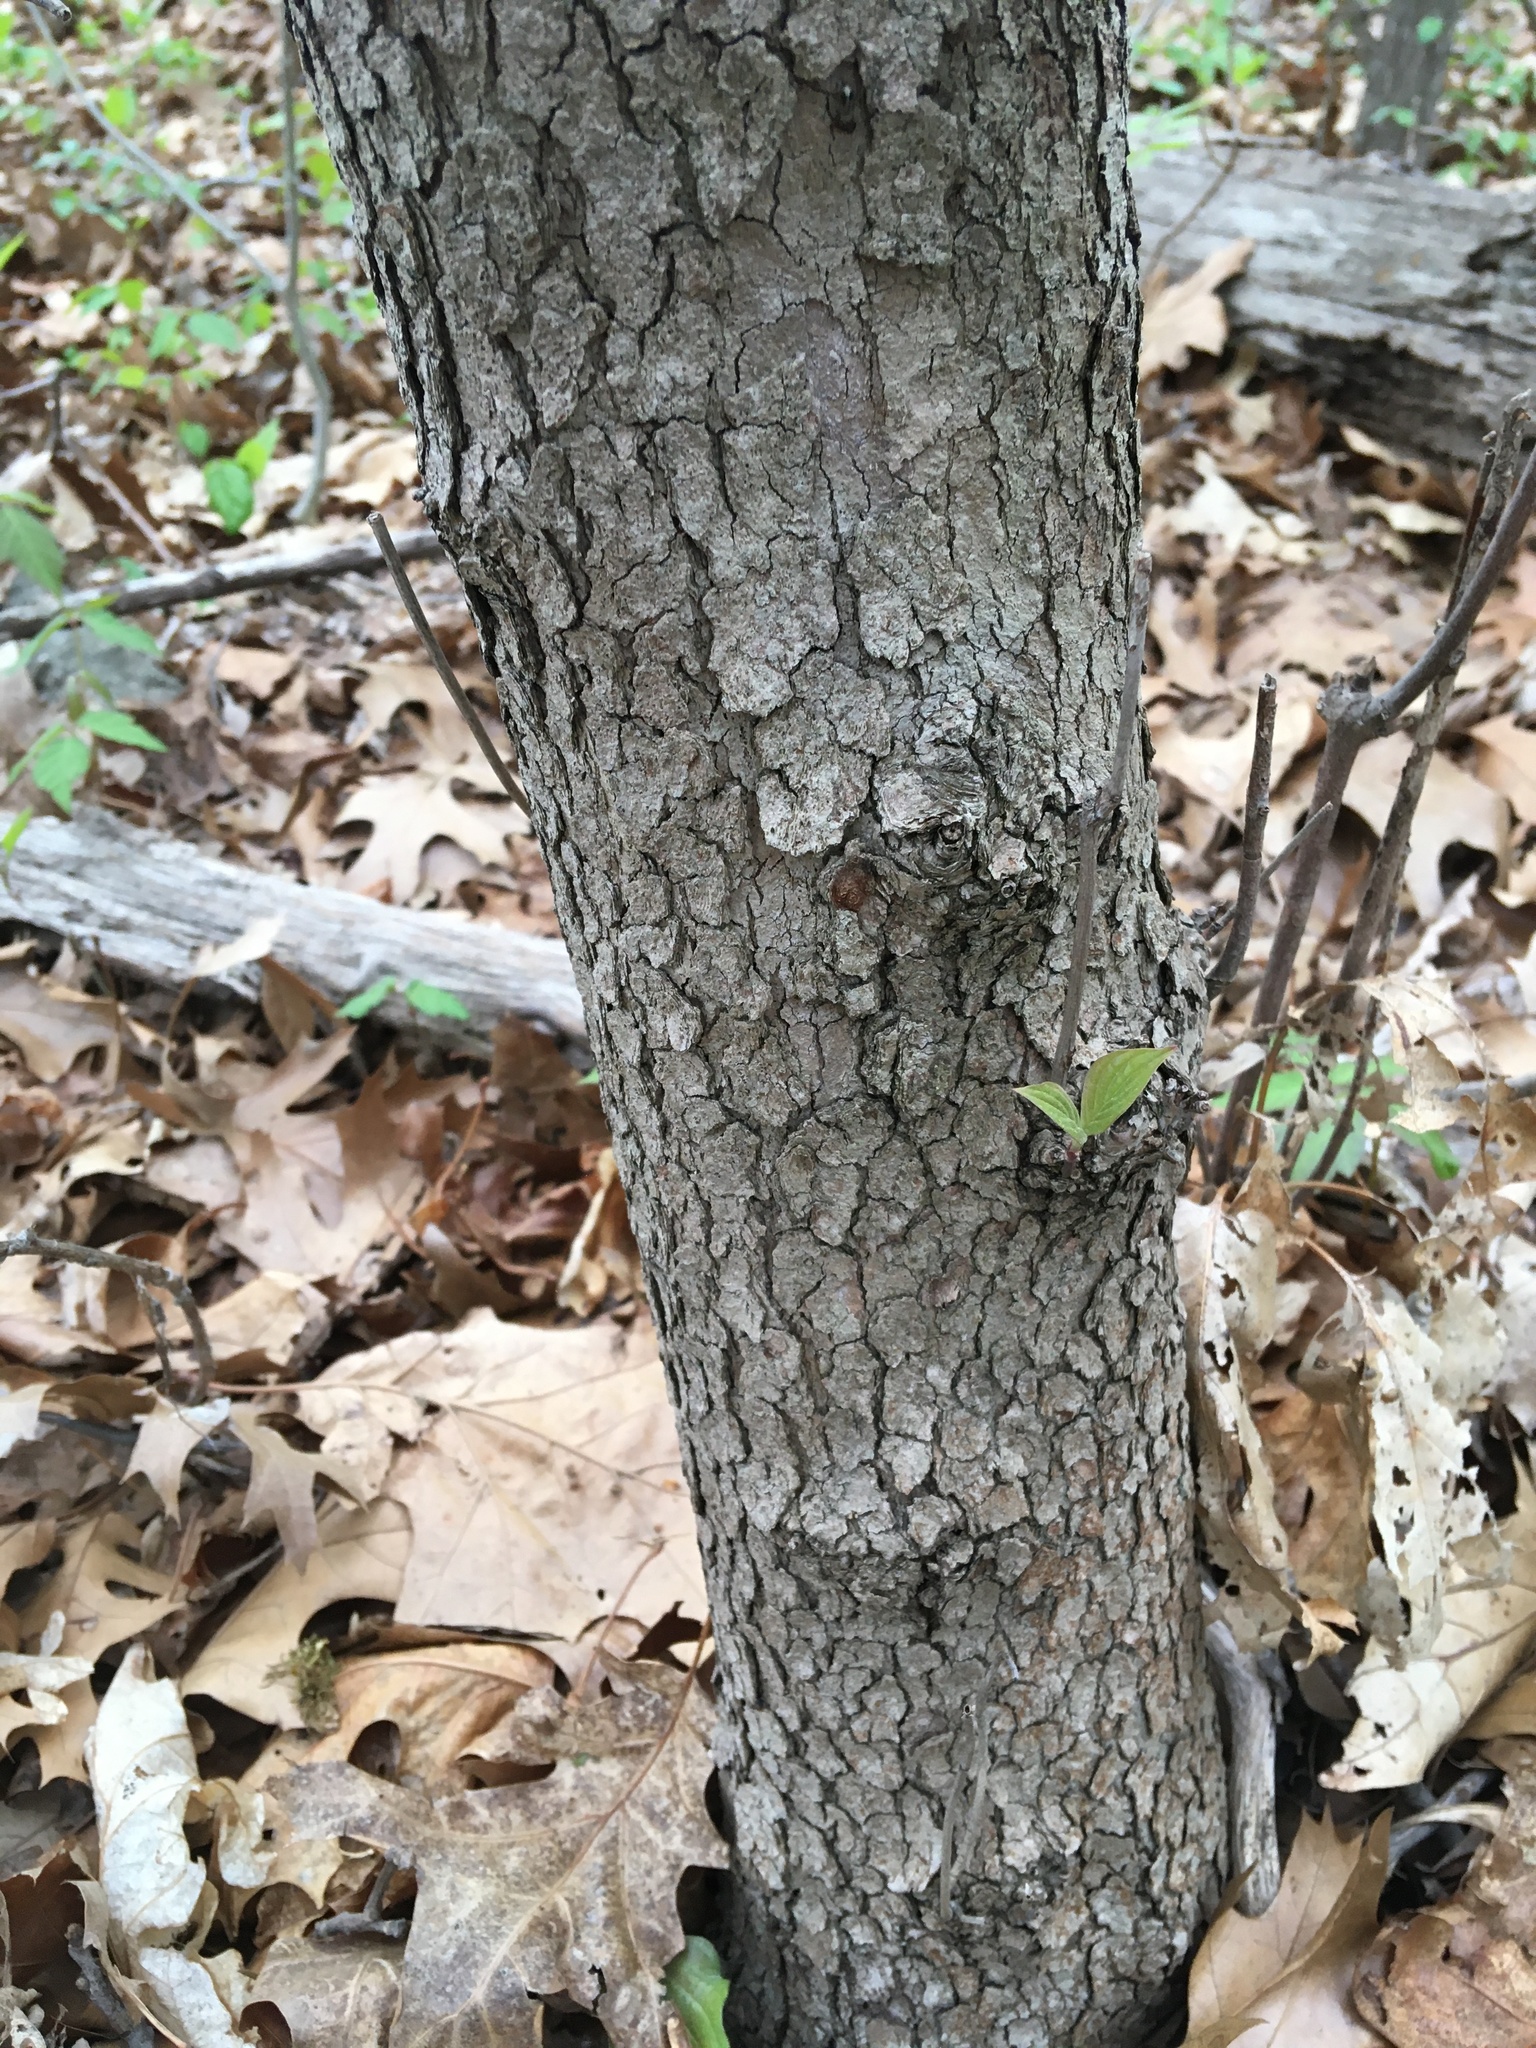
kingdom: Plantae
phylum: Tracheophyta
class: Magnoliopsida
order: Cornales
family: Cornaceae
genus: Cornus
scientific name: Cornus florida
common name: Flowering dogwood
